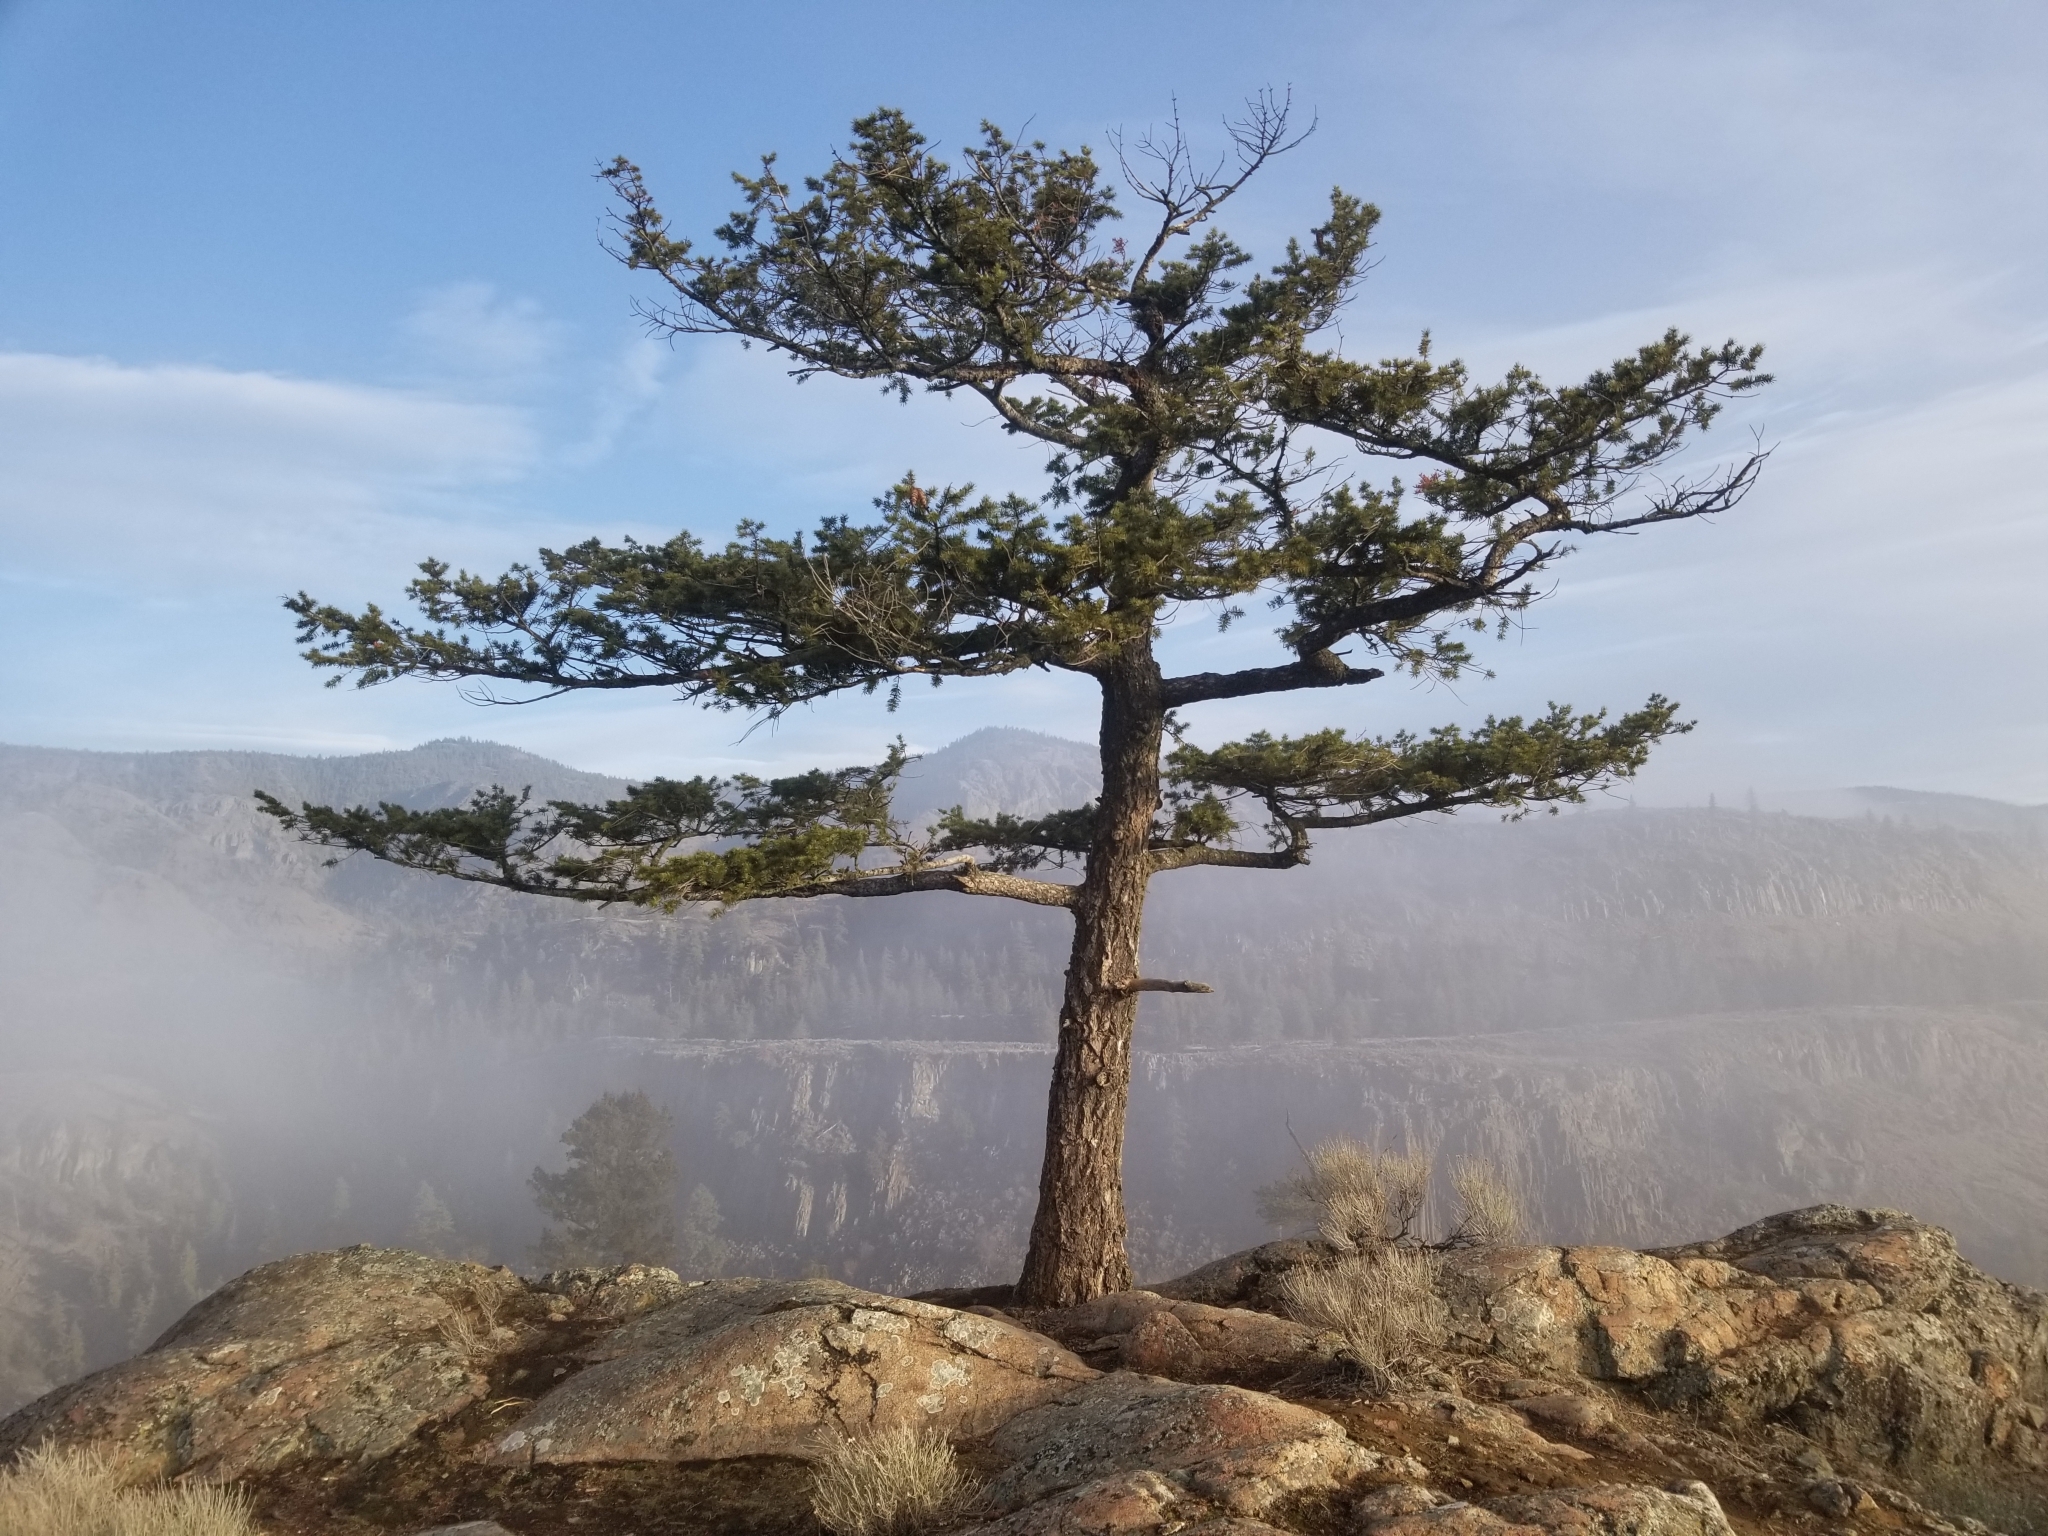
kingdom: Plantae
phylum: Tracheophyta
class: Pinopsida
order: Pinales
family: Pinaceae
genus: Pseudotsuga
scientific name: Pseudotsuga menziesii
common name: Douglas fir
